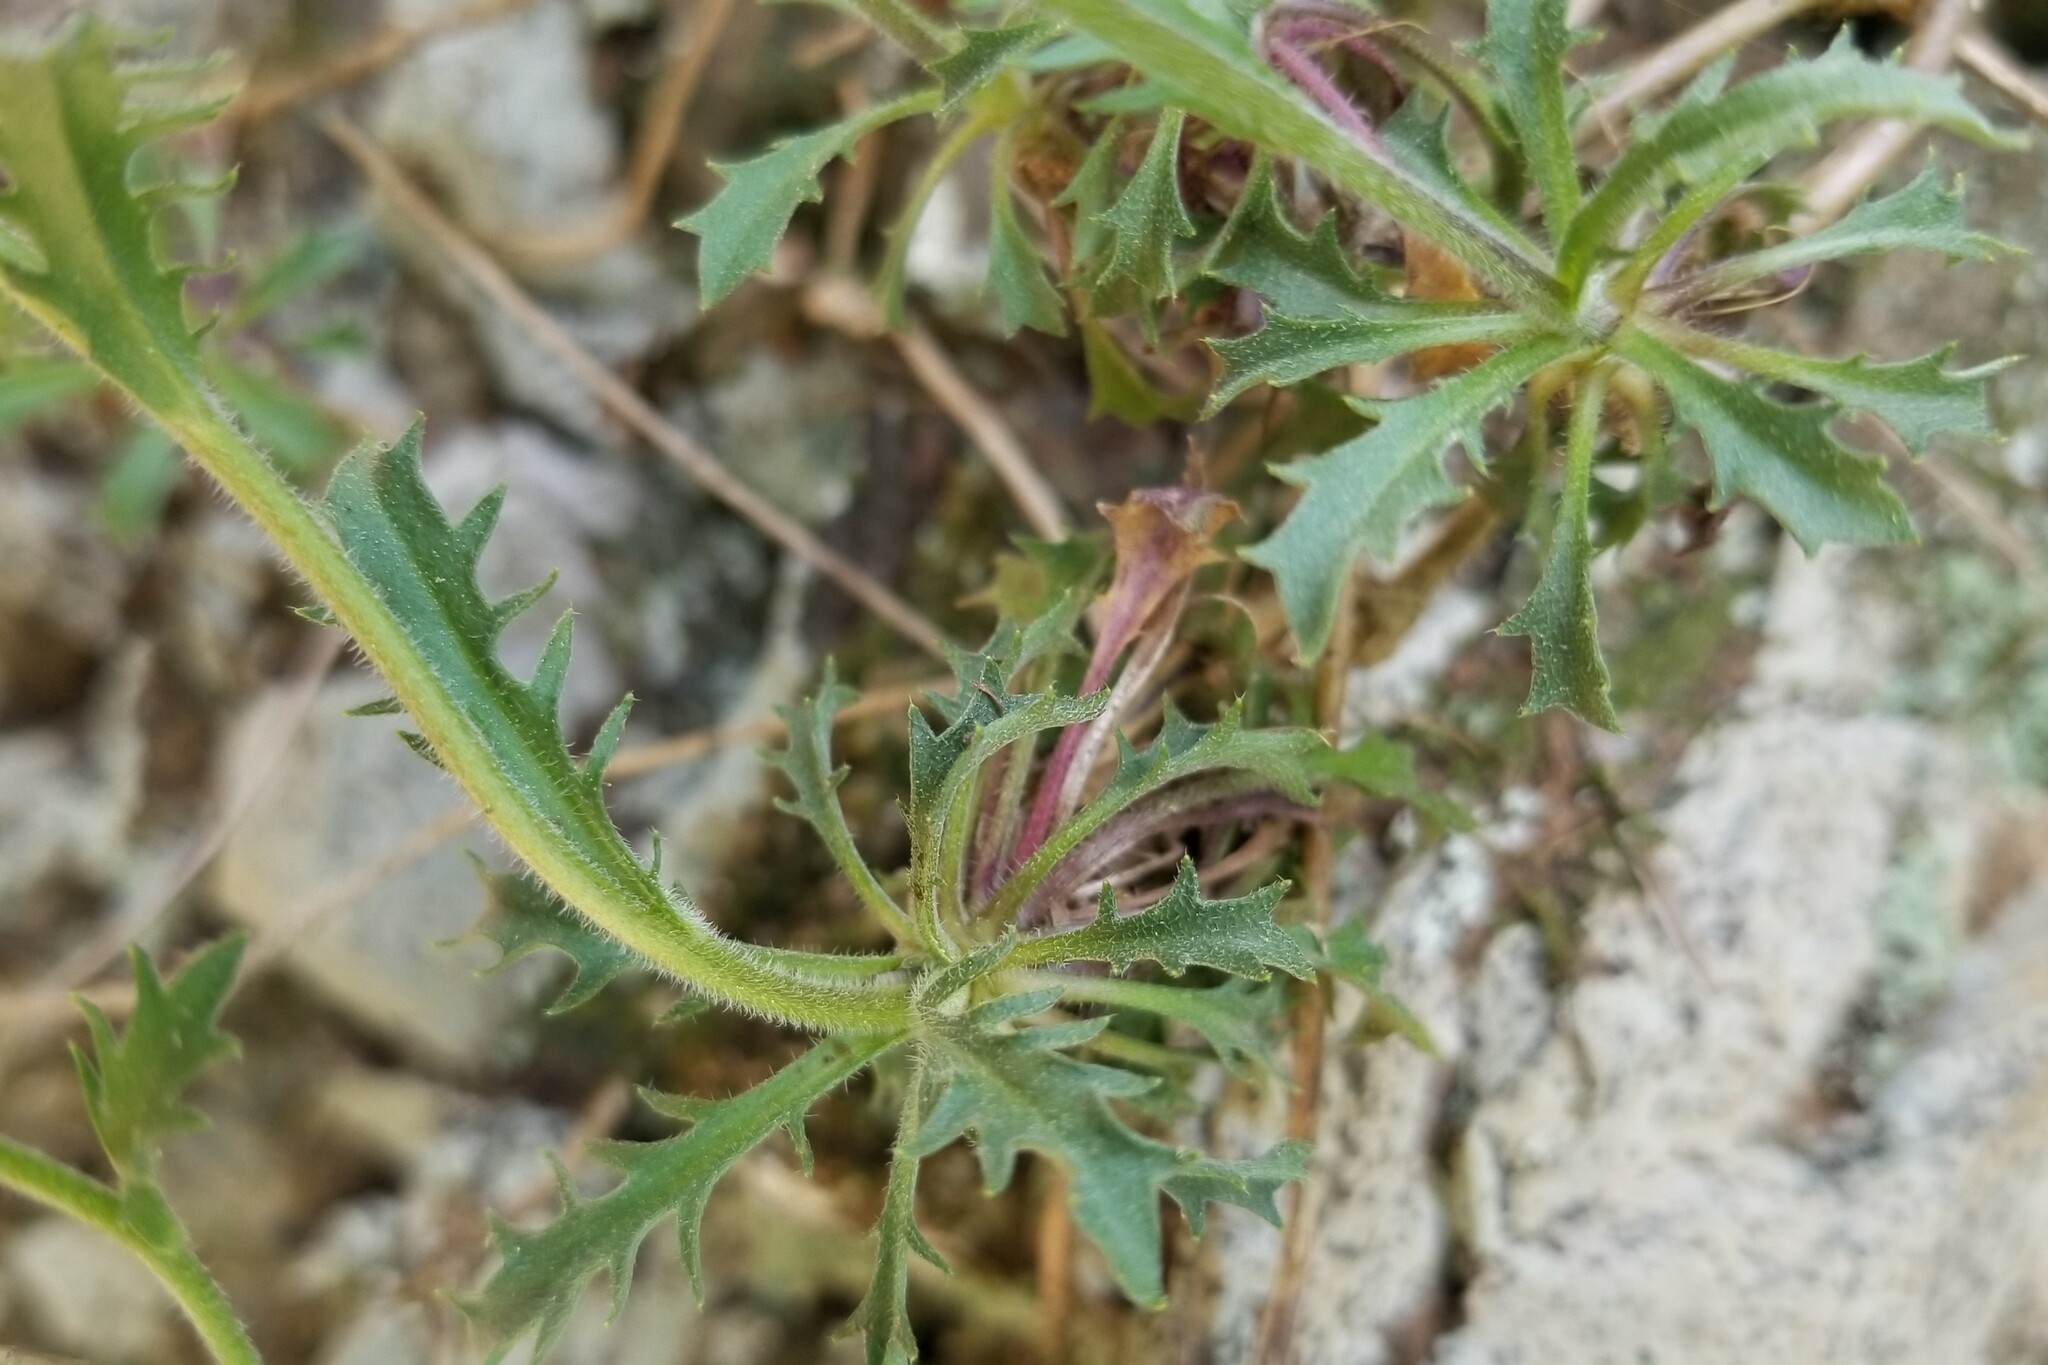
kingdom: Plantae
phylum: Tracheophyta
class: Magnoliopsida
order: Brassicales
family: Brassicaceae
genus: Draba
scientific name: Draba ramosissima
